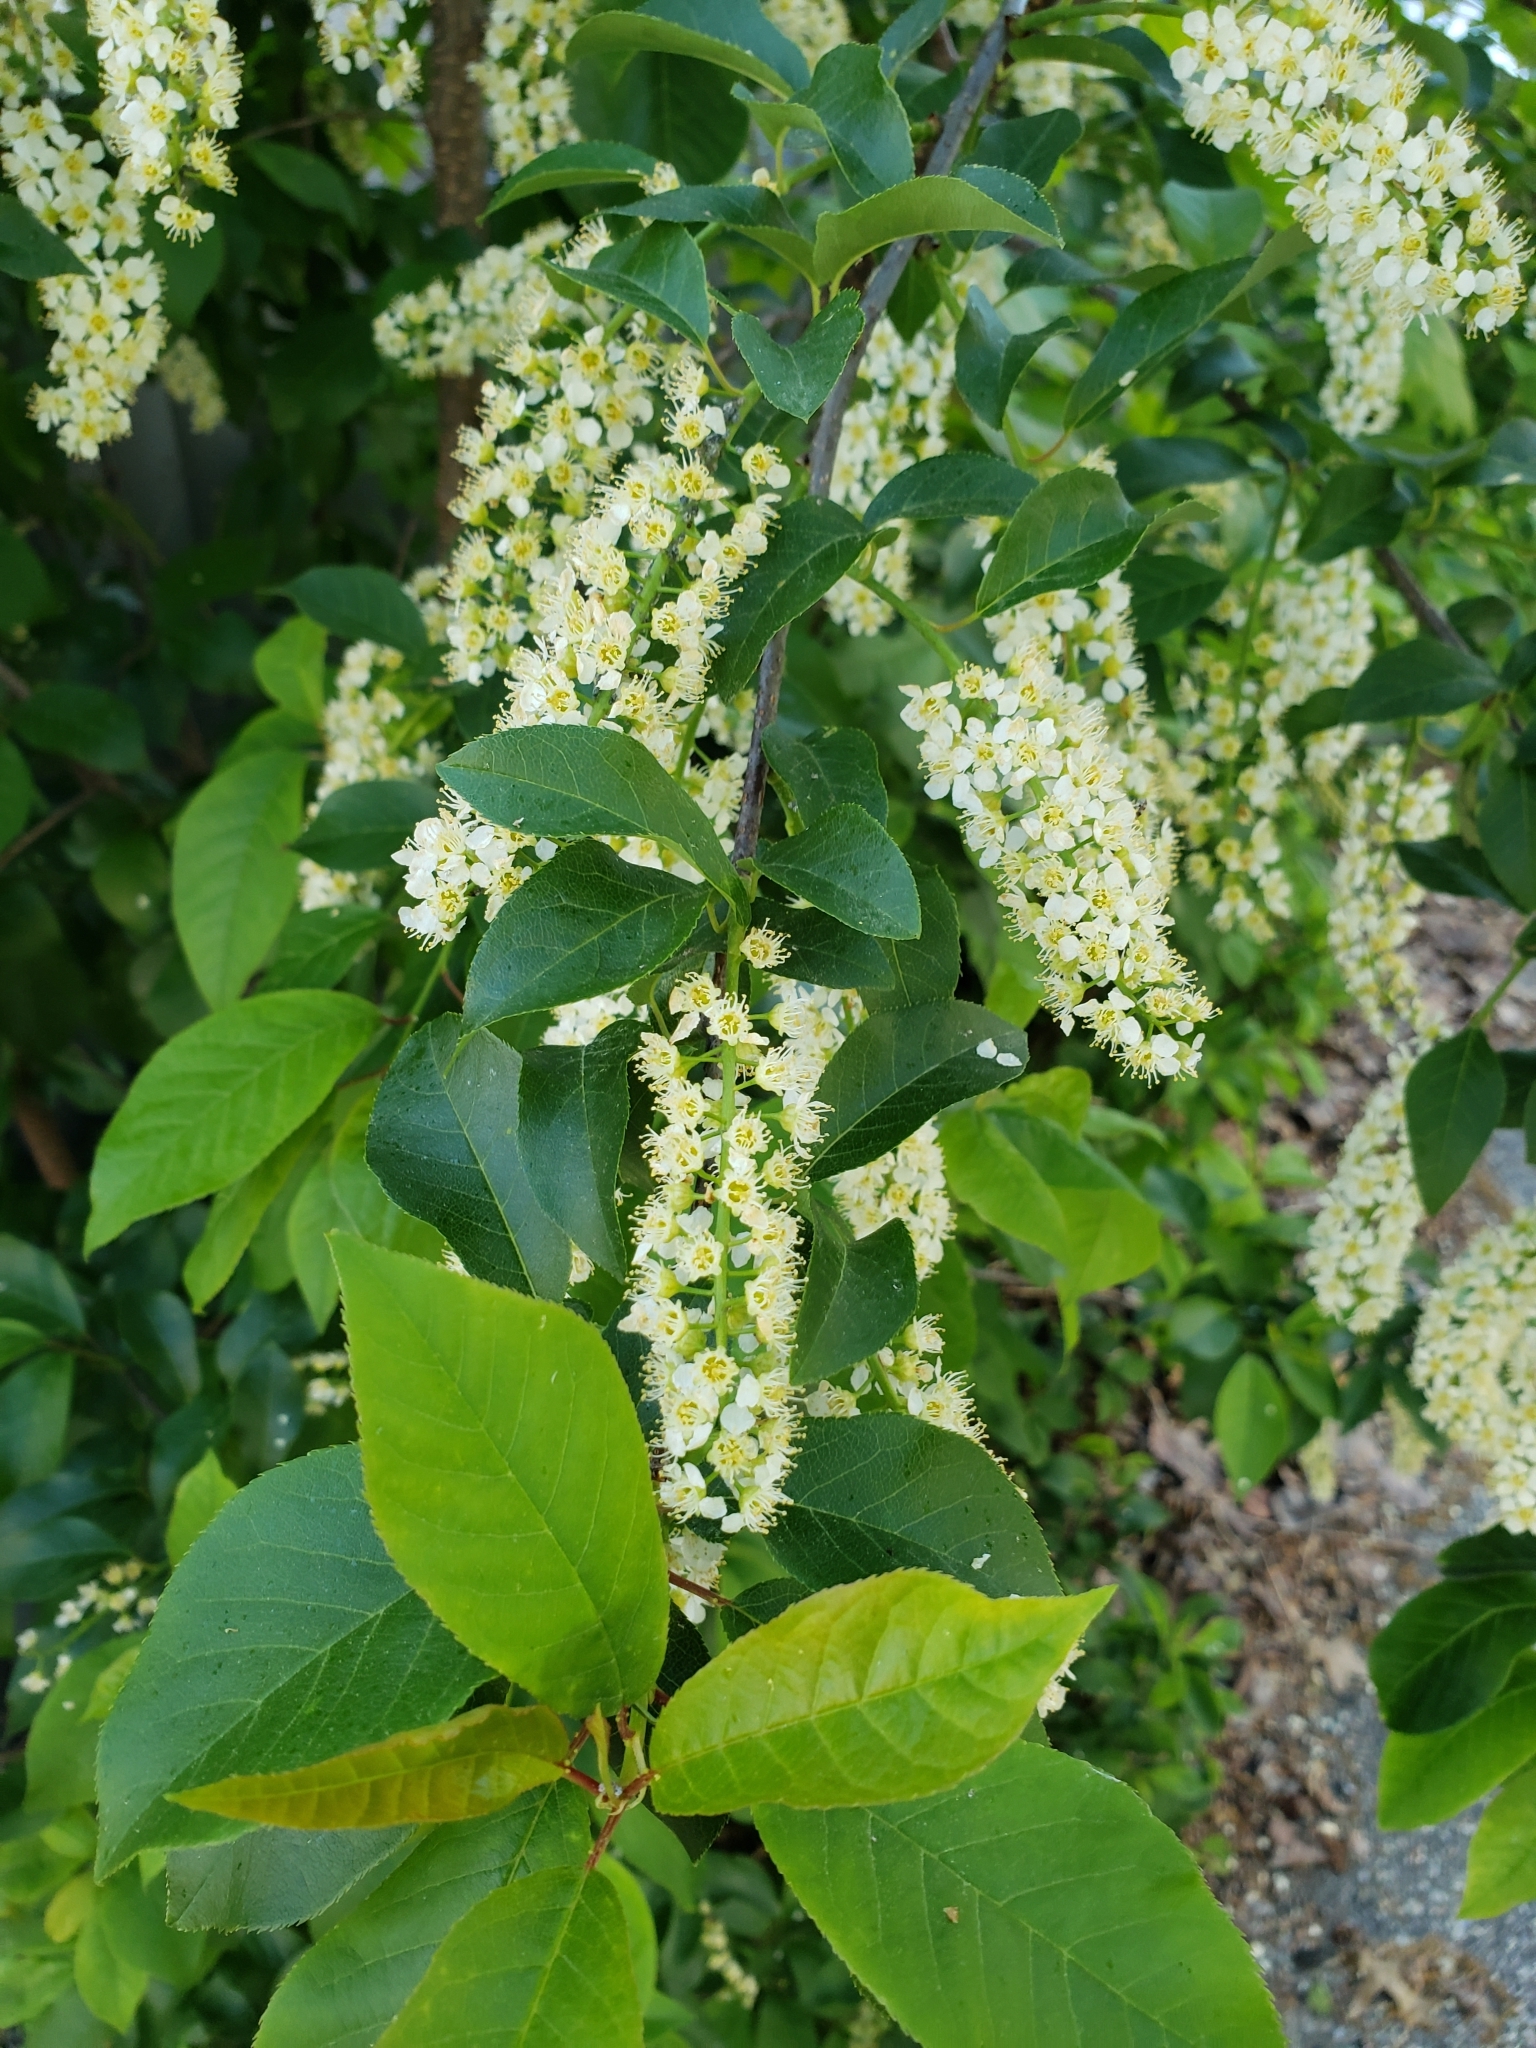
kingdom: Plantae
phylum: Tracheophyta
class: Magnoliopsida
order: Rosales
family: Rosaceae
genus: Prunus
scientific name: Prunus virginiana
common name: Chokecherry
